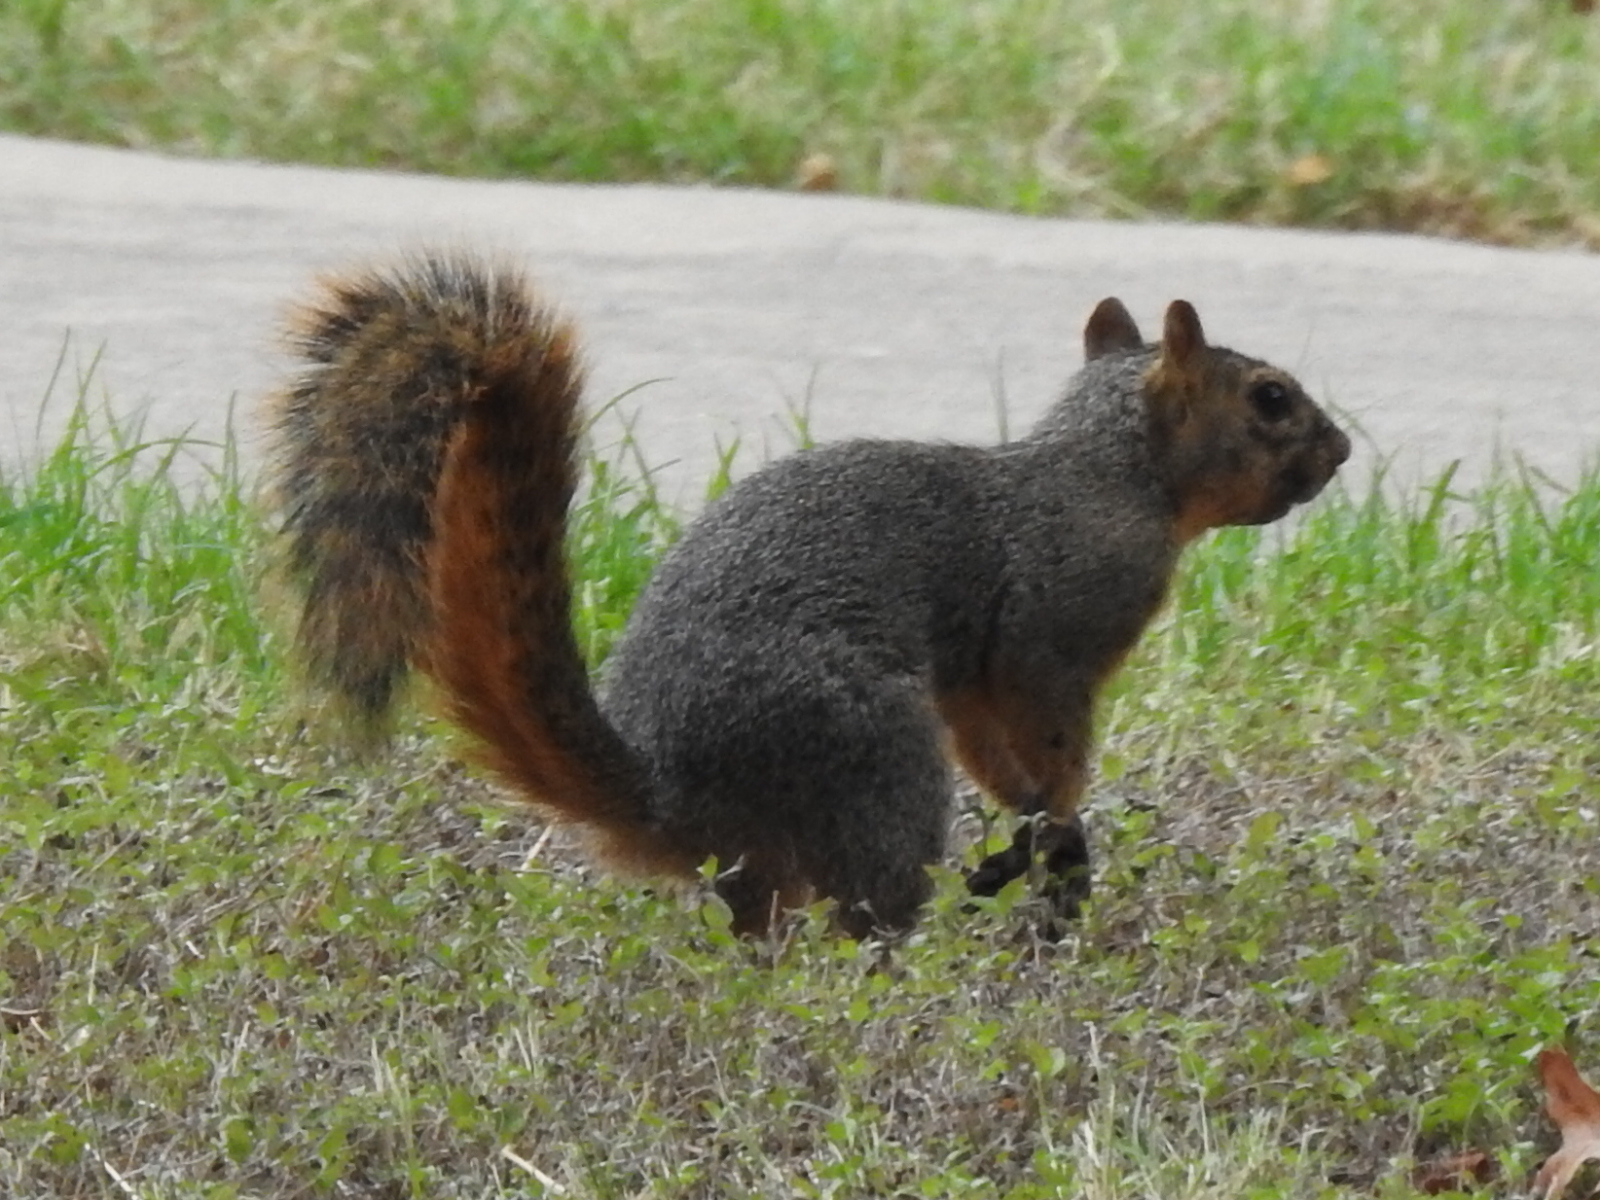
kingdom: Animalia
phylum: Chordata
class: Mammalia
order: Rodentia
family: Sciuridae
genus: Sciurus
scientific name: Sciurus niger
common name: Fox squirrel
